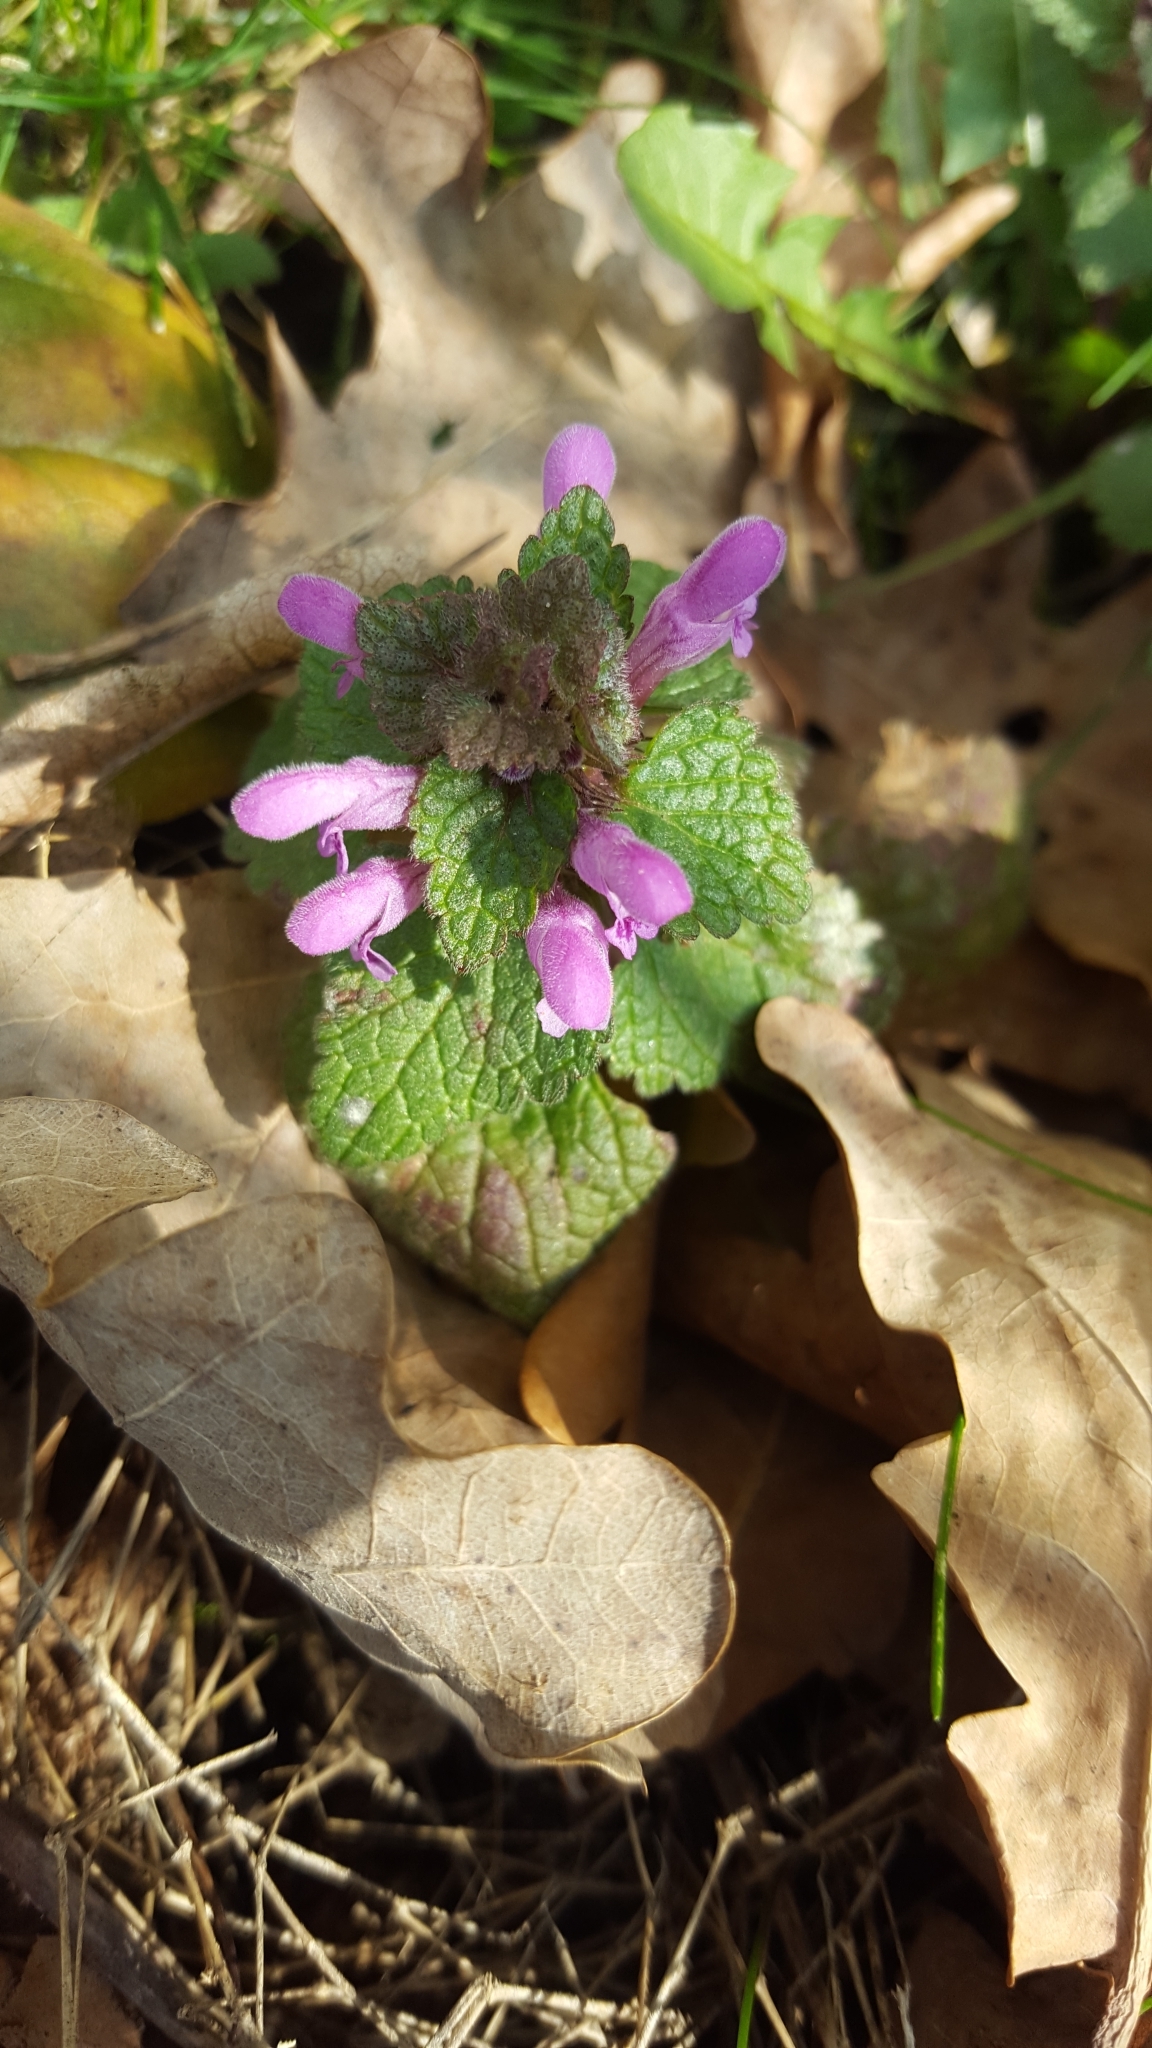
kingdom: Plantae
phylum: Tracheophyta
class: Magnoliopsida
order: Lamiales
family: Lamiaceae
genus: Lamium
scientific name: Lamium purpureum
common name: Red dead-nettle
